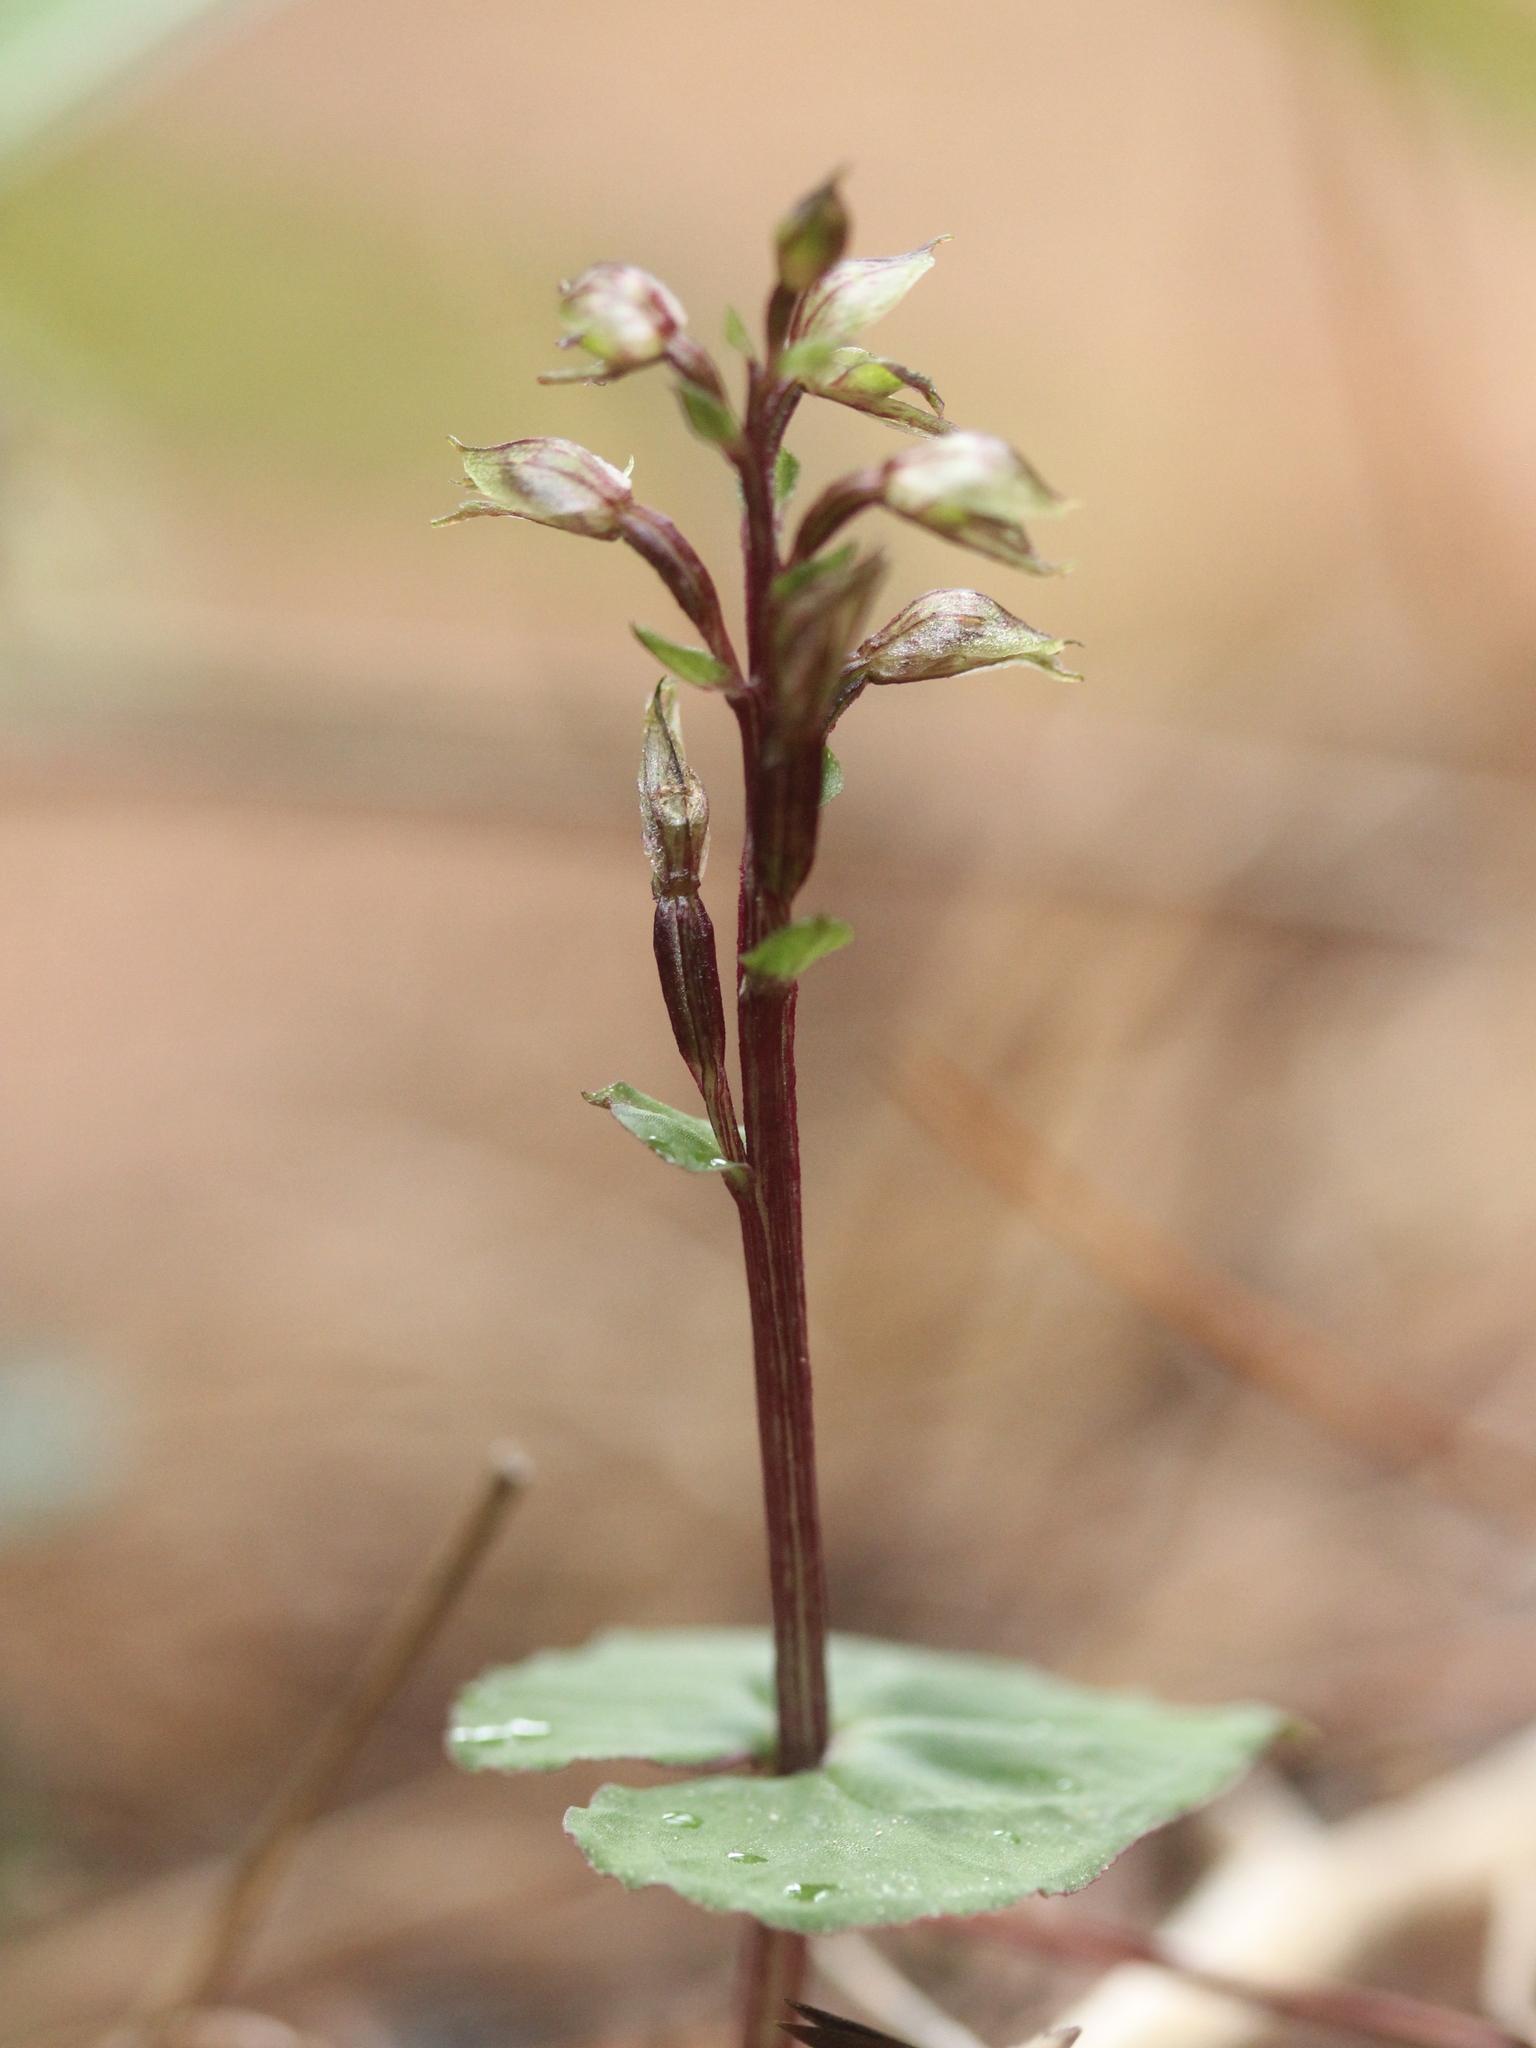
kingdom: Plantae
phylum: Tracheophyta
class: Liliopsida
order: Asparagales
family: Orchidaceae
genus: Acianthus
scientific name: Acianthus sinclairii
